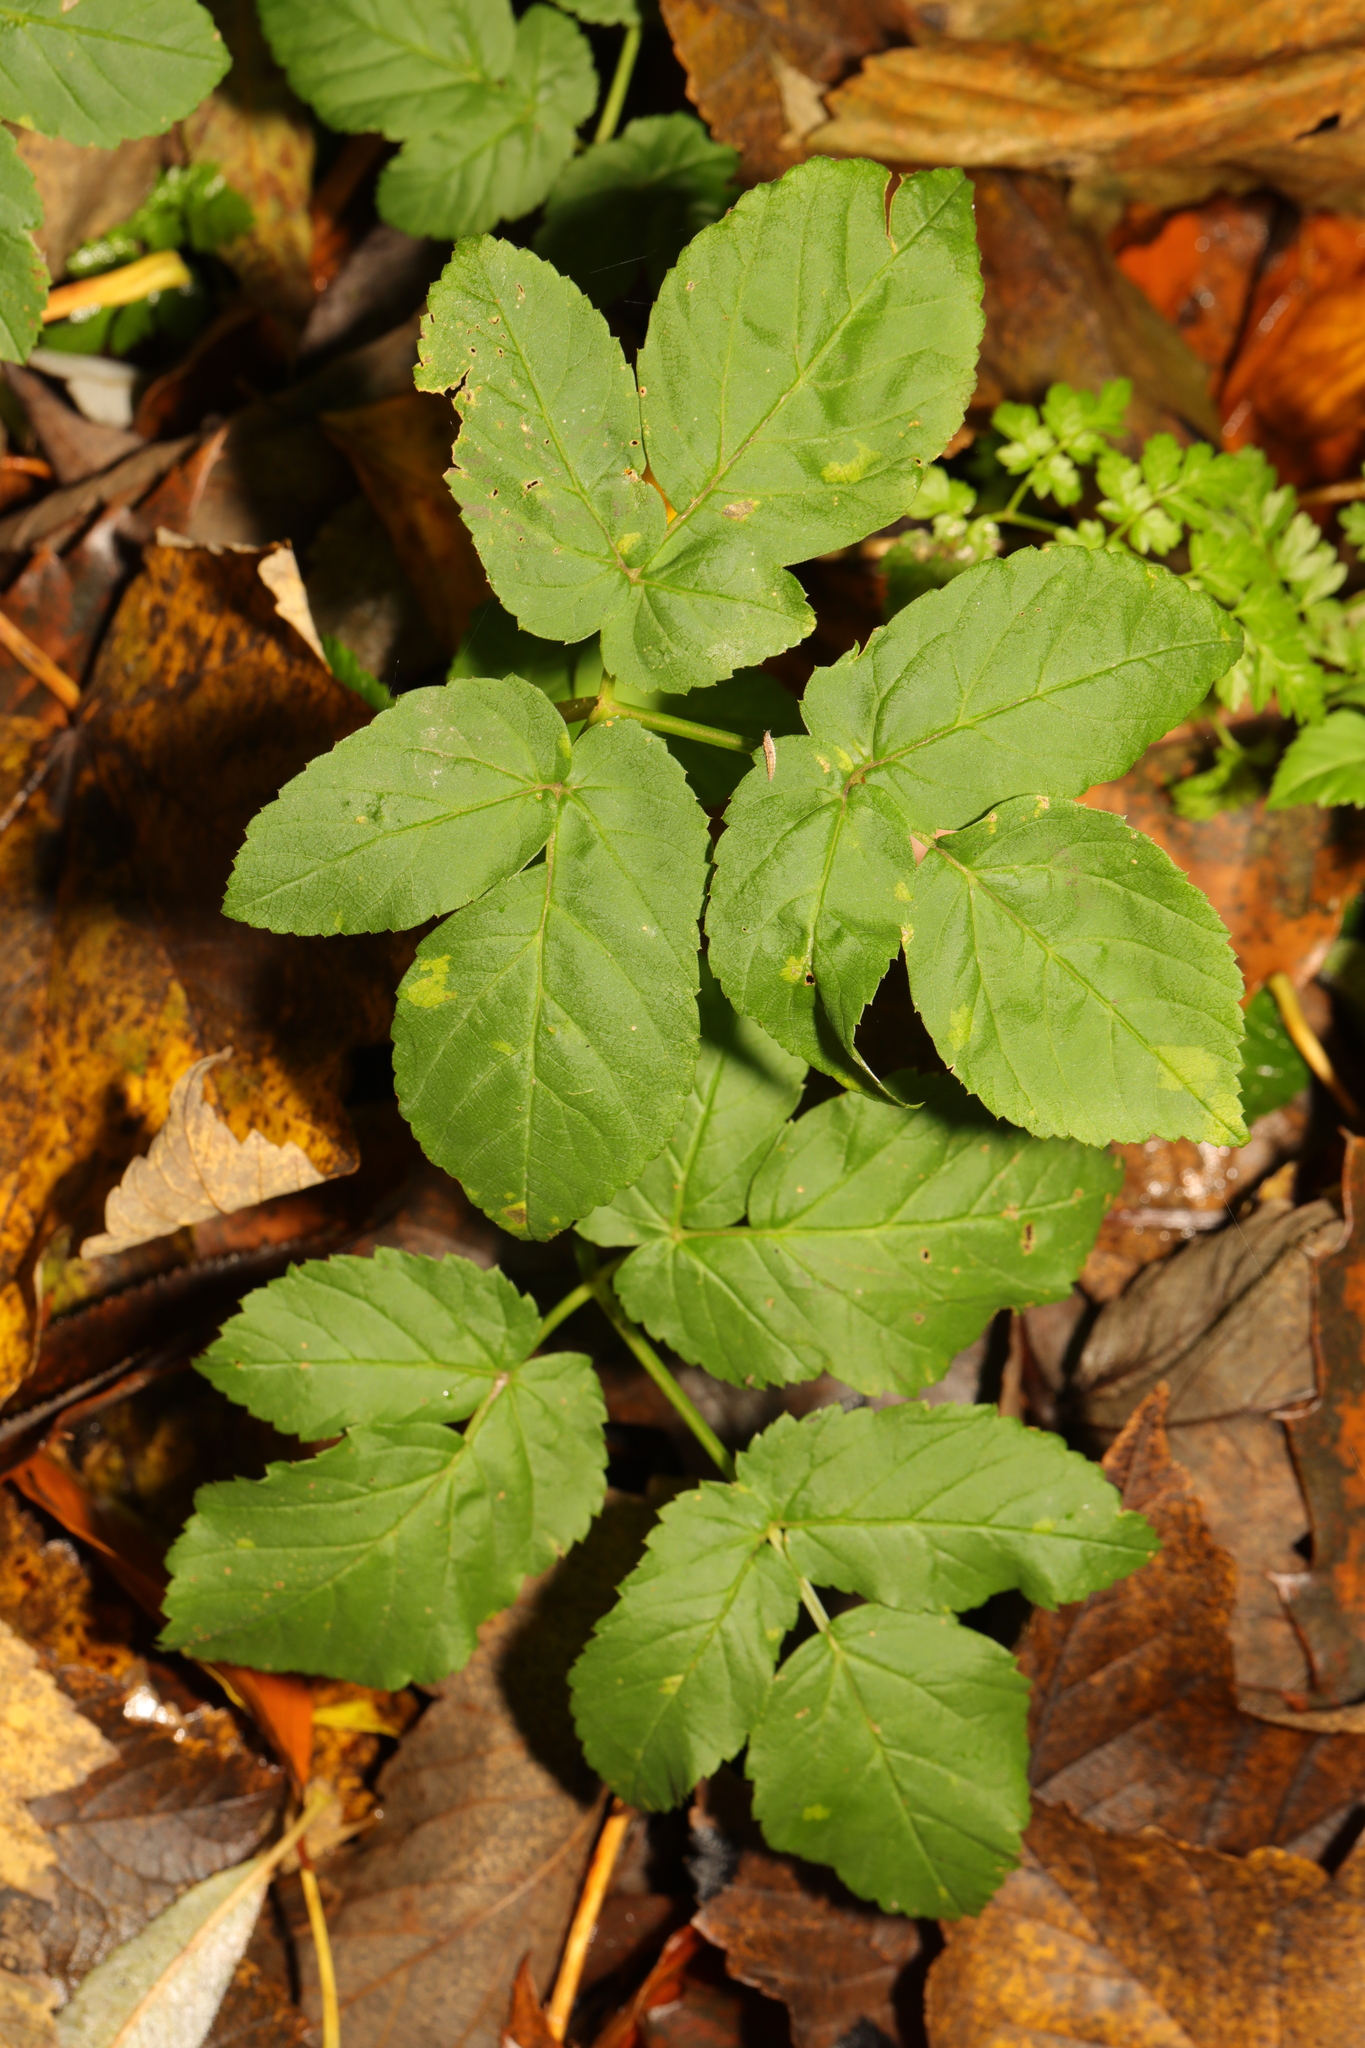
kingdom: Plantae
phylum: Tracheophyta
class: Magnoliopsida
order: Apiales
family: Apiaceae
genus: Aegopodium
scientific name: Aegopodium podagraria
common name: Ground-elder
